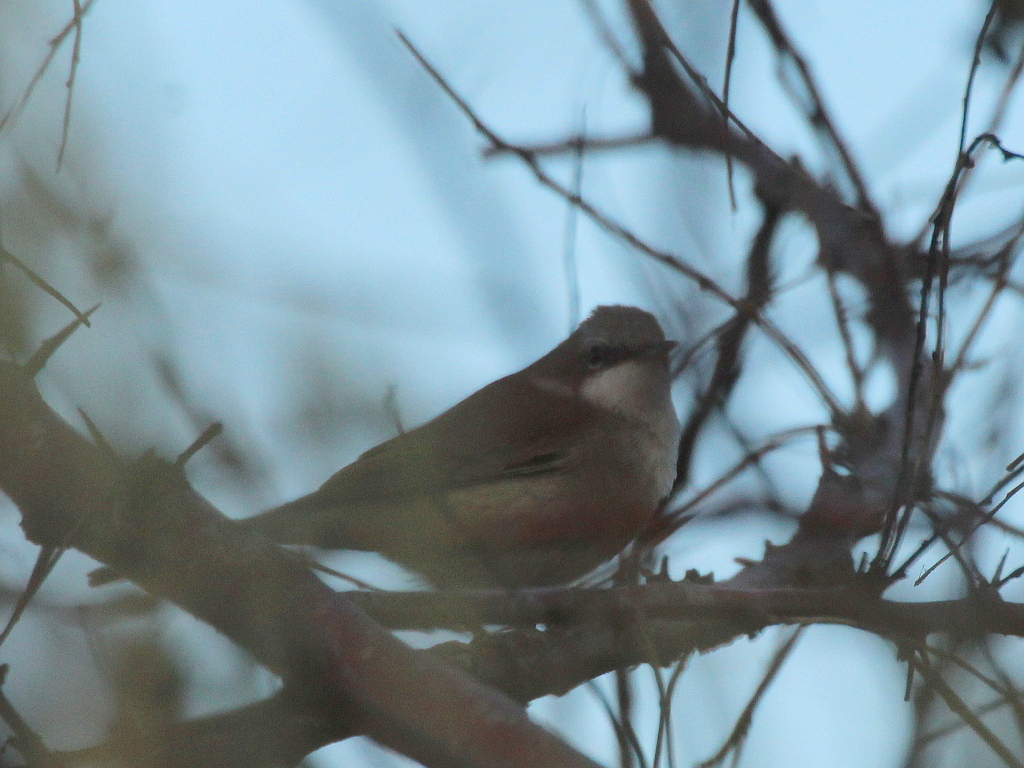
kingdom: Animalia
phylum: Chordata
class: Aves
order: Passeriformes
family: Sylviidae
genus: Sylvia
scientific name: Sylvia curruca
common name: Lesser whitethroat
